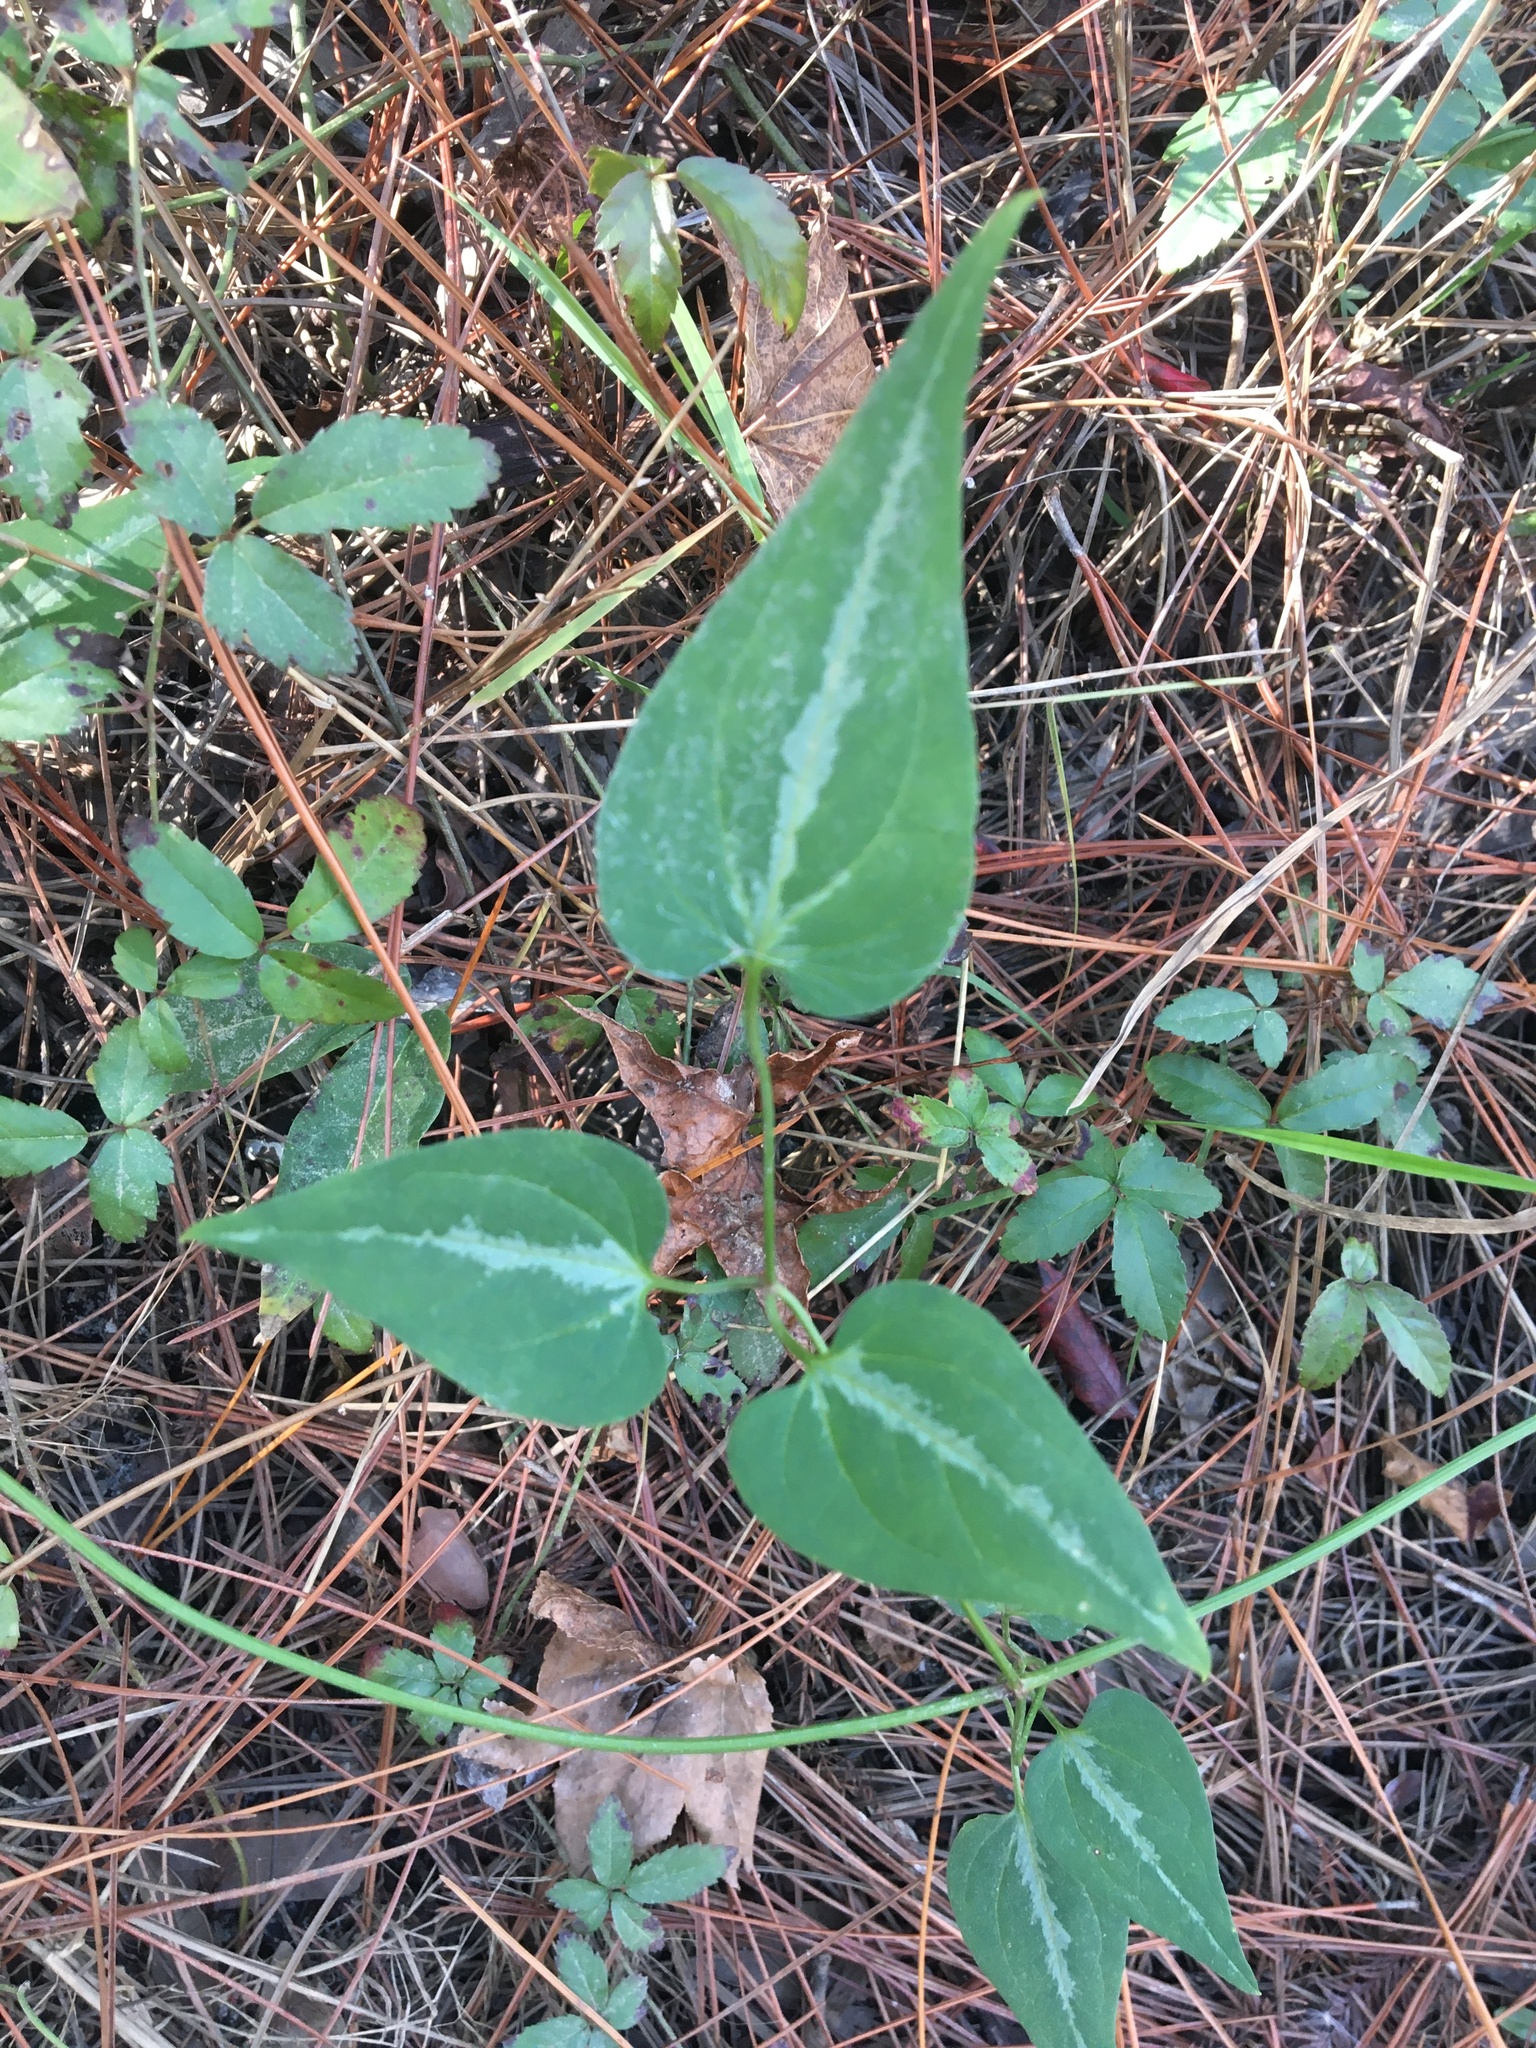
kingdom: Plantae
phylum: Tracheophyta
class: Magnoliopsida
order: Ranunculales
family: Ranunculaceae
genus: Clematis
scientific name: Clematis terniflora
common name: Sweet autumn clematis
